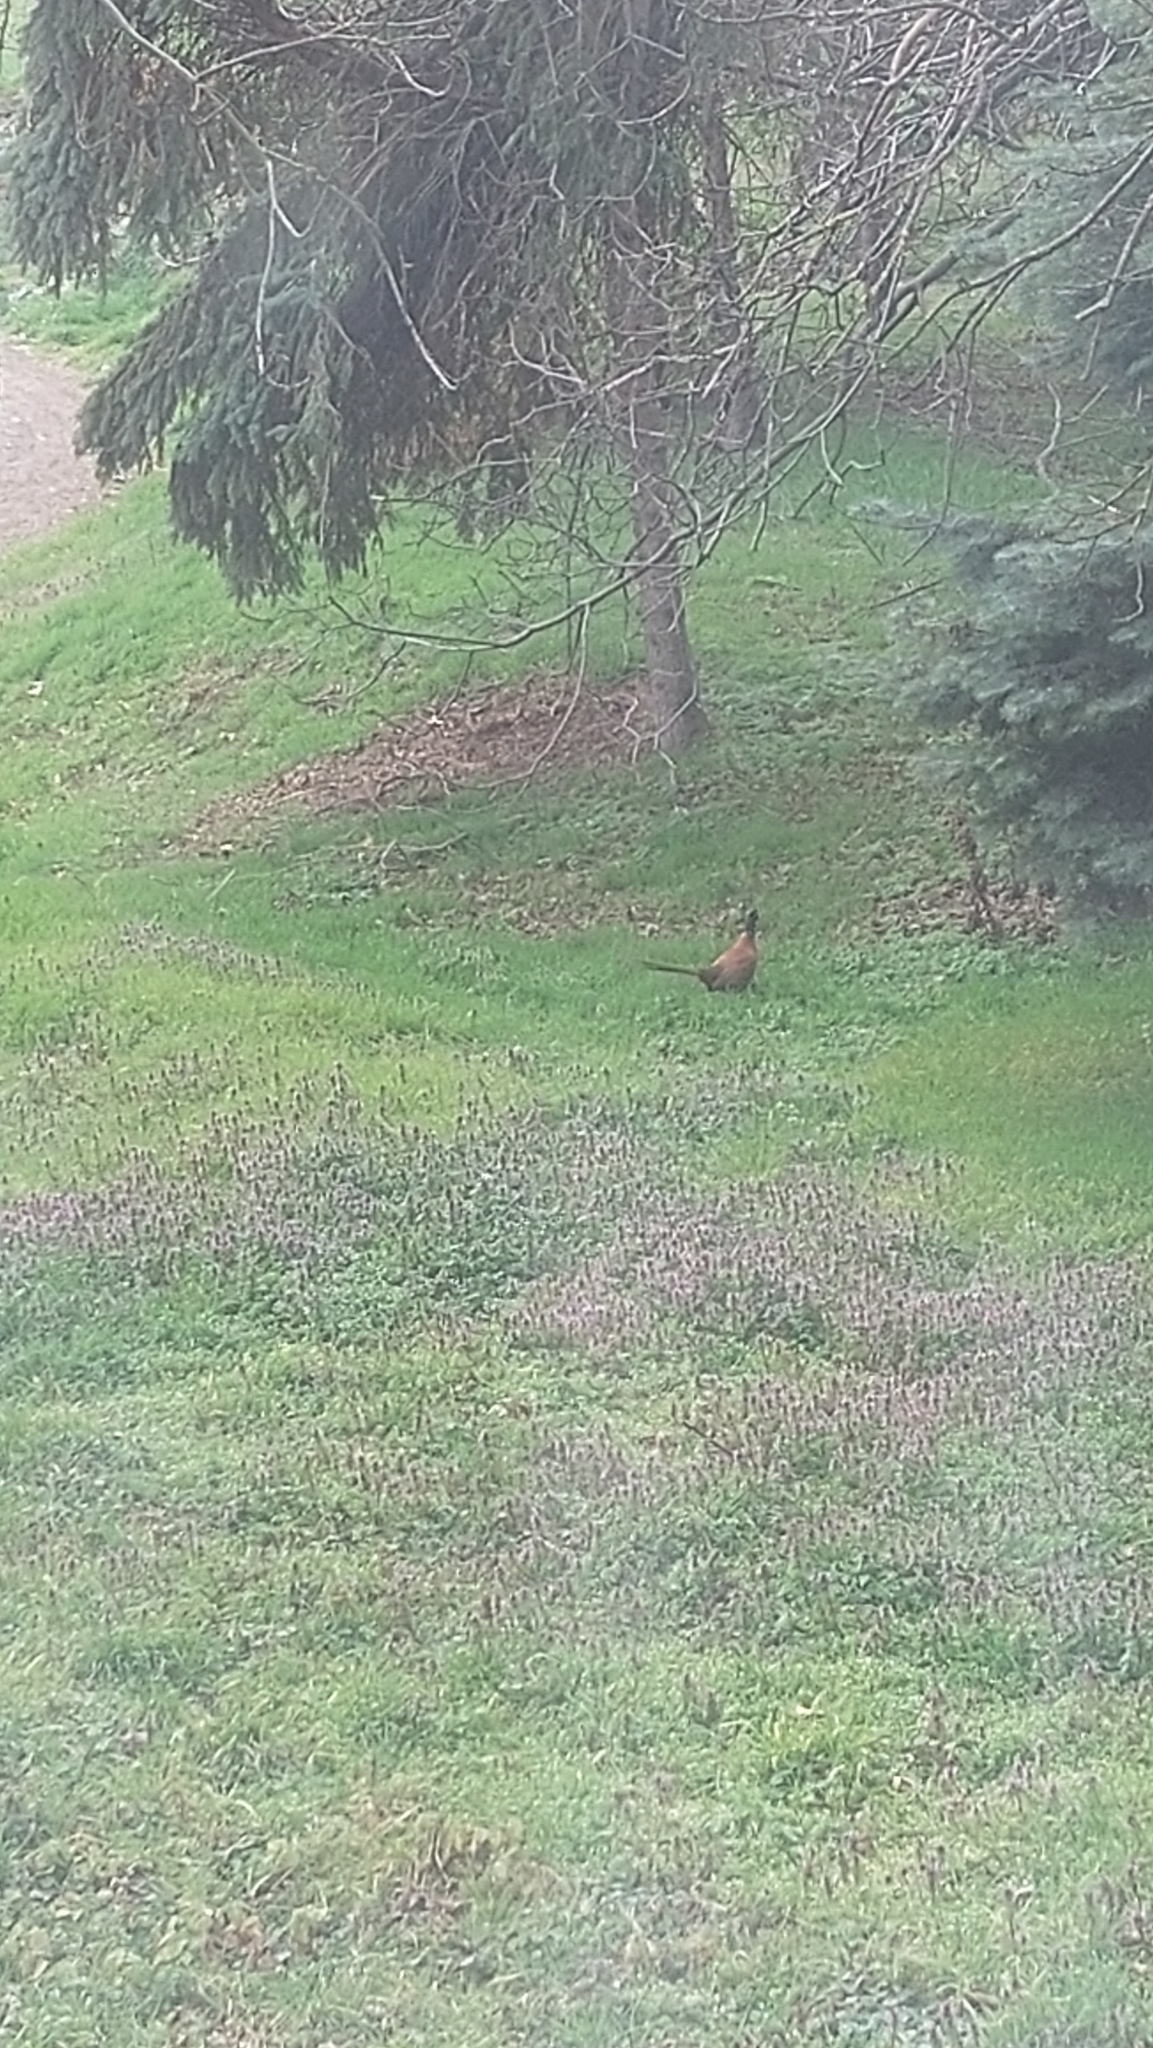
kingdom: Animalia
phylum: Chordata
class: Aves
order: Galliformes
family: Phasianidae
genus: Phasianus
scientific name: Phasianus colchicus
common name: Common pheasant
